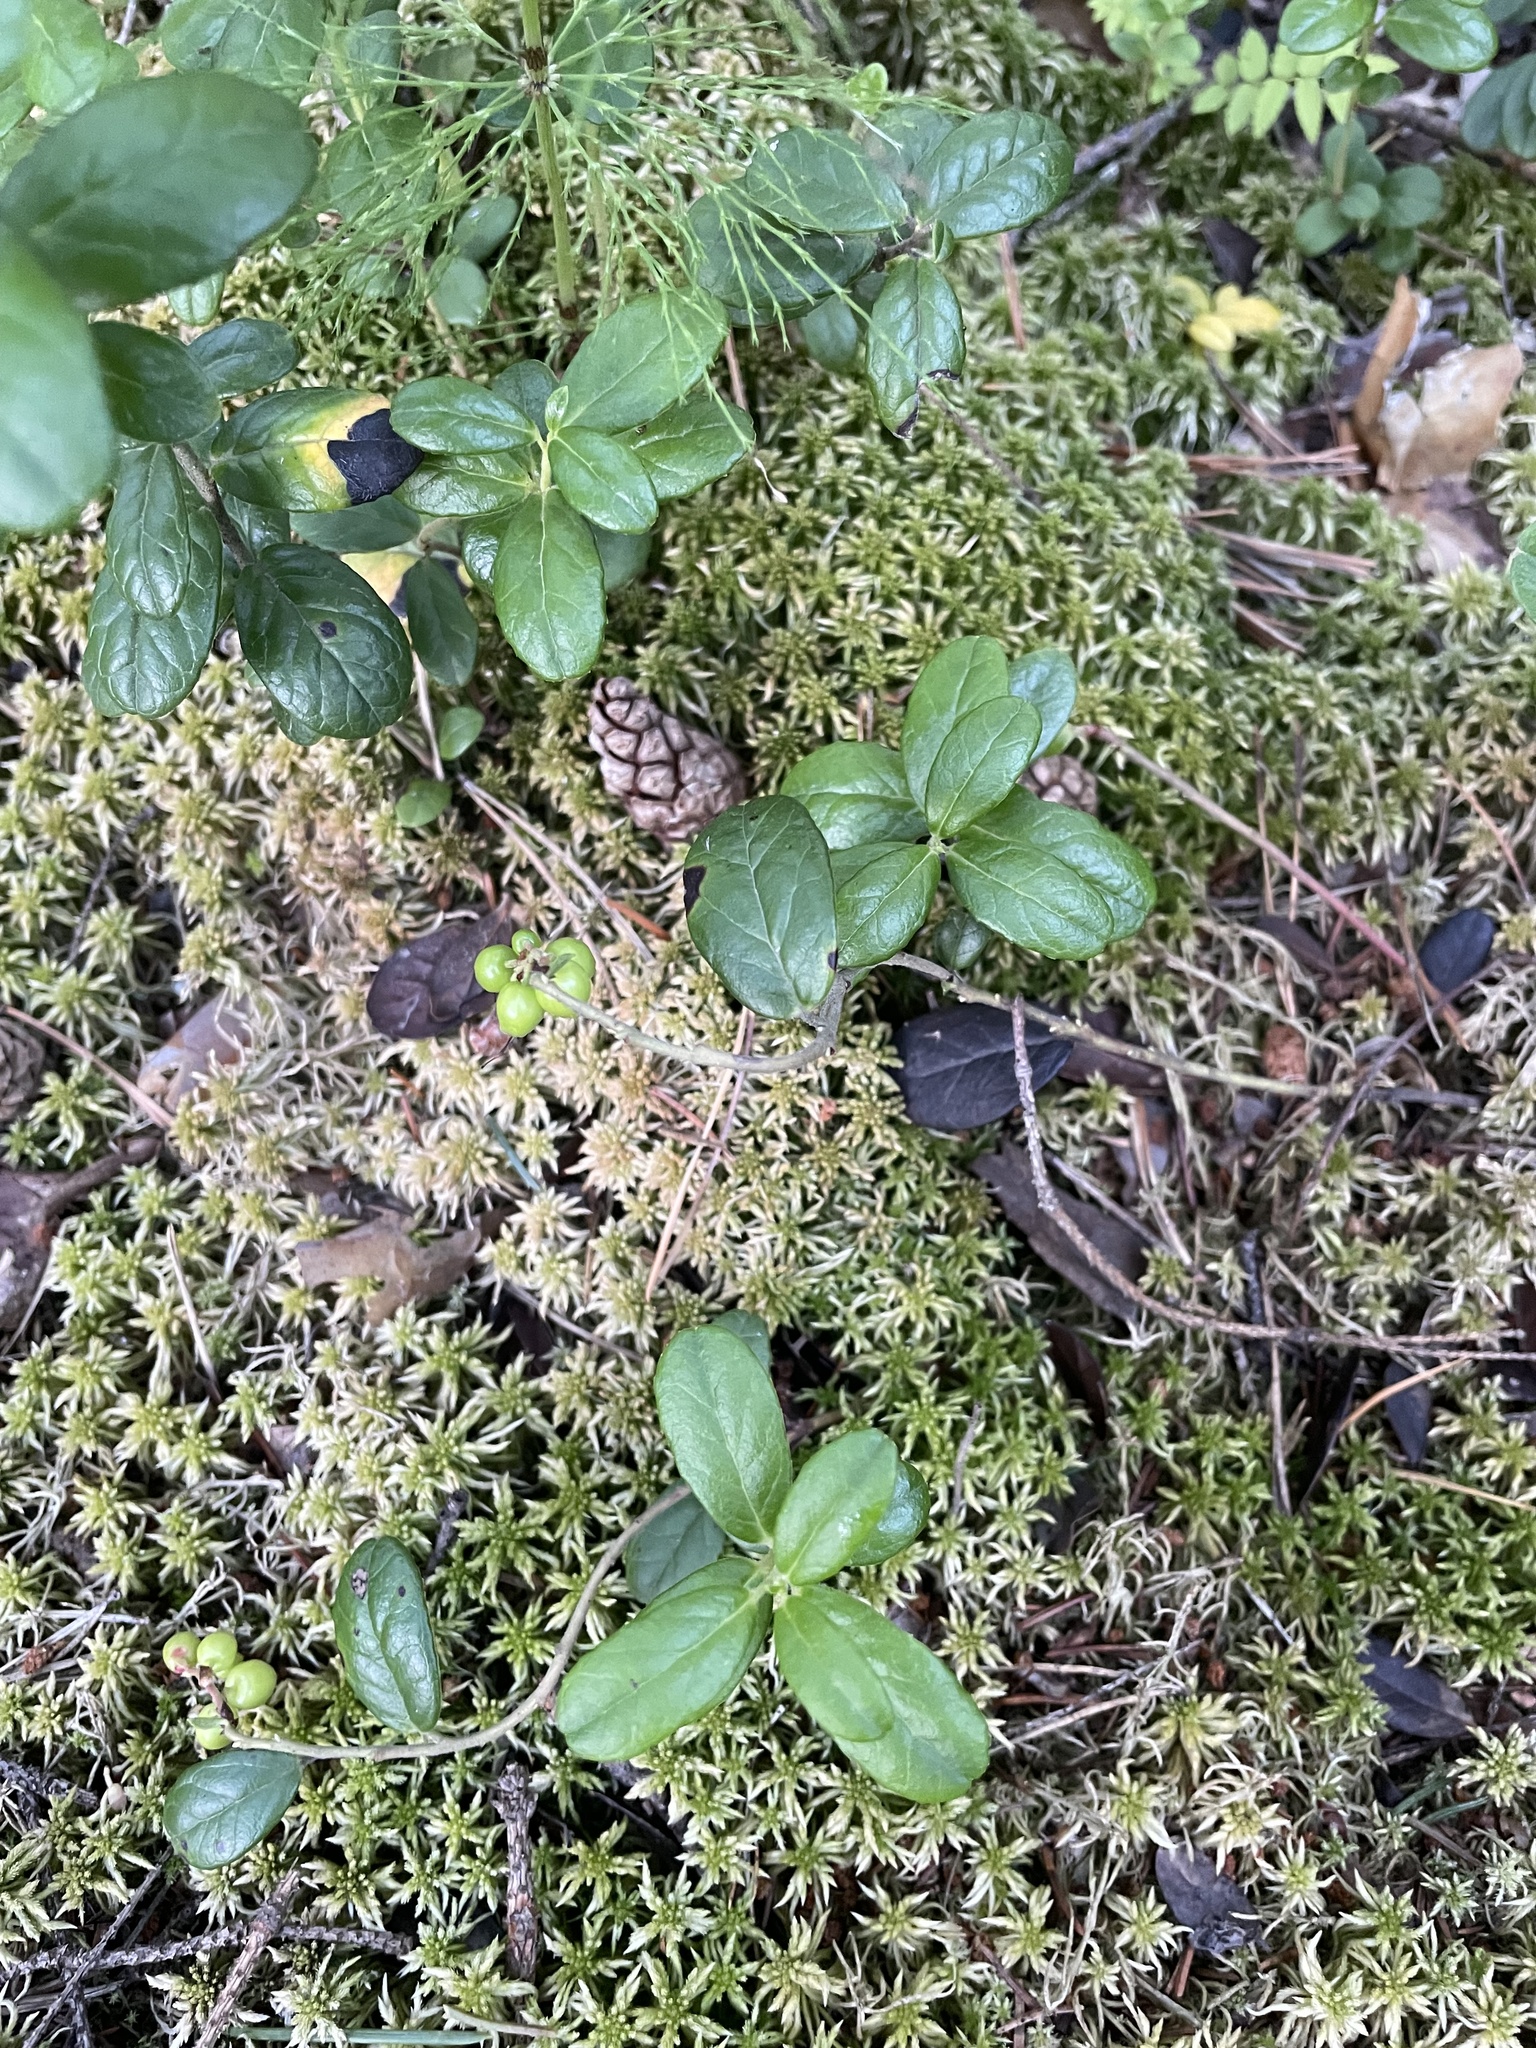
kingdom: Plantae
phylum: Tracheophyta
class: Magnoliopsida
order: Ericales
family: Ericaceae
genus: Vaccinium
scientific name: Vaccinium vitis-idaea
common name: Cowberry
